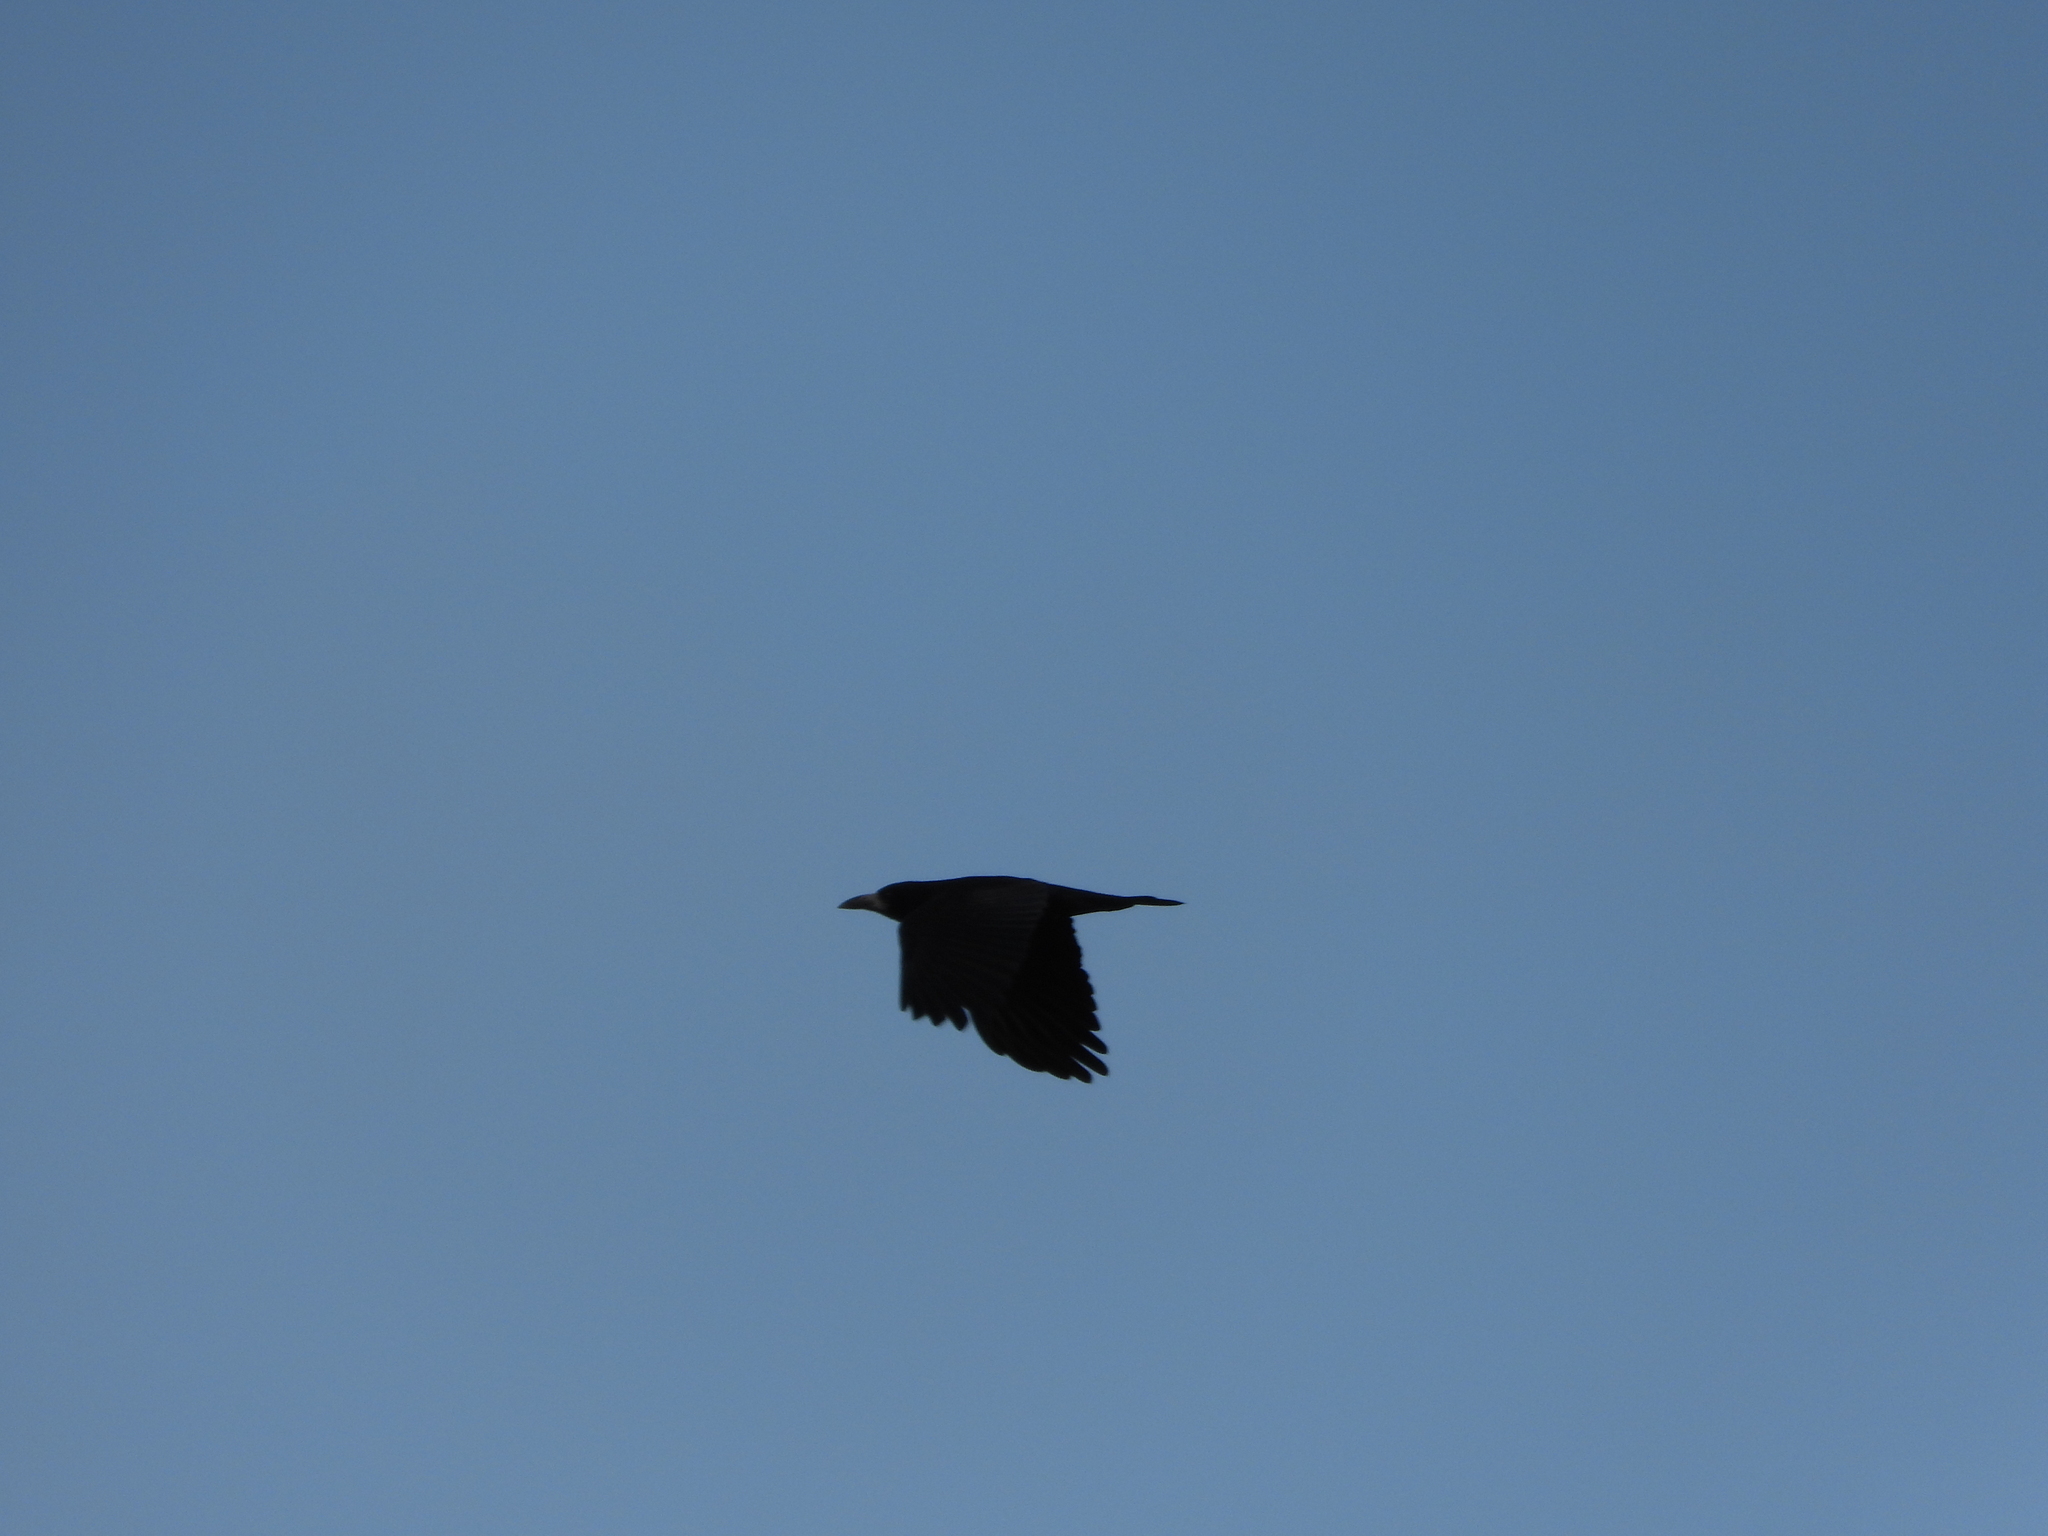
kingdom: Animalia
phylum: Chordata
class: Aves
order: Passeriformes
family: Corvidae
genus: Corvus
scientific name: Corvus frugilegus
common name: Rook
